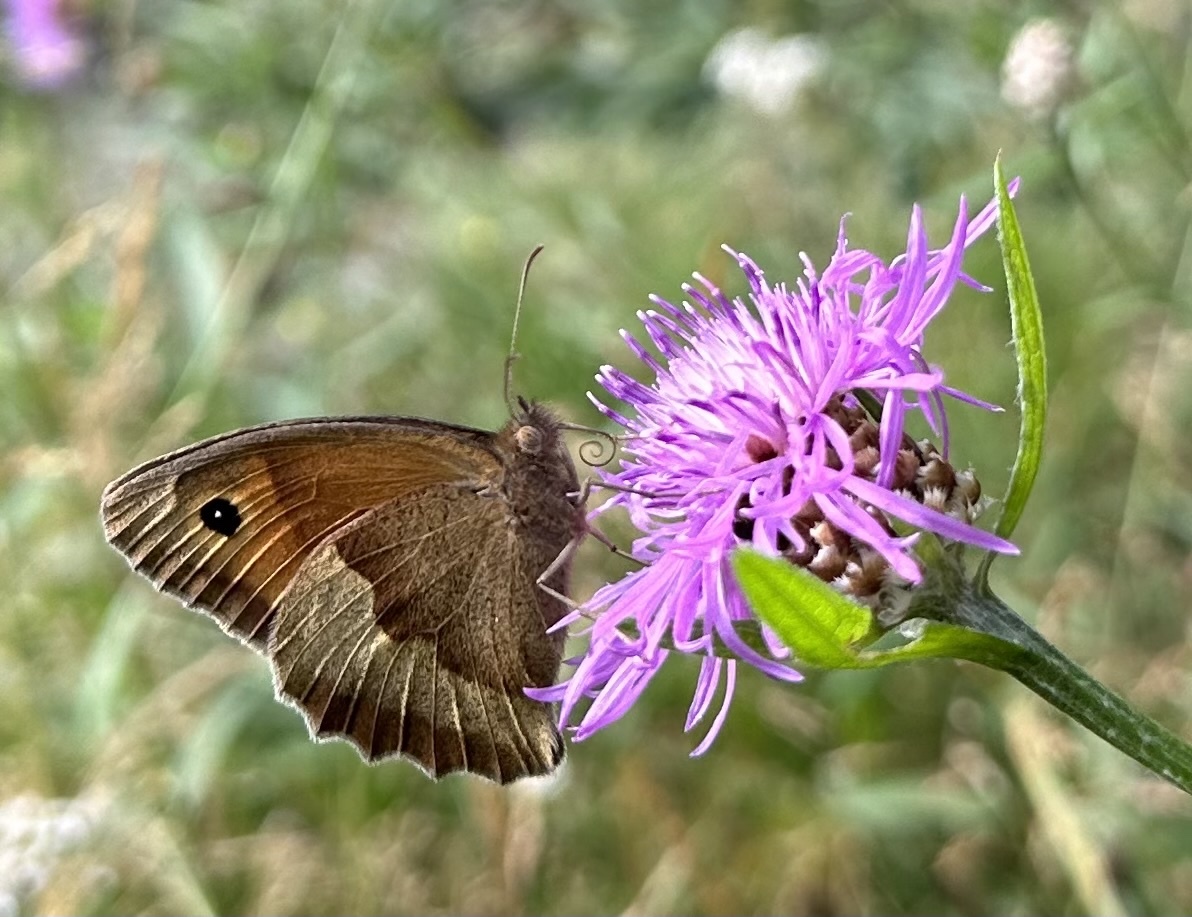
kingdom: Animalia
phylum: Arthropoda
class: Insecta
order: Lepidoptera
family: Nymphalidae
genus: Maniola
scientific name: Maniola jurtina
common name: Meadow brown
